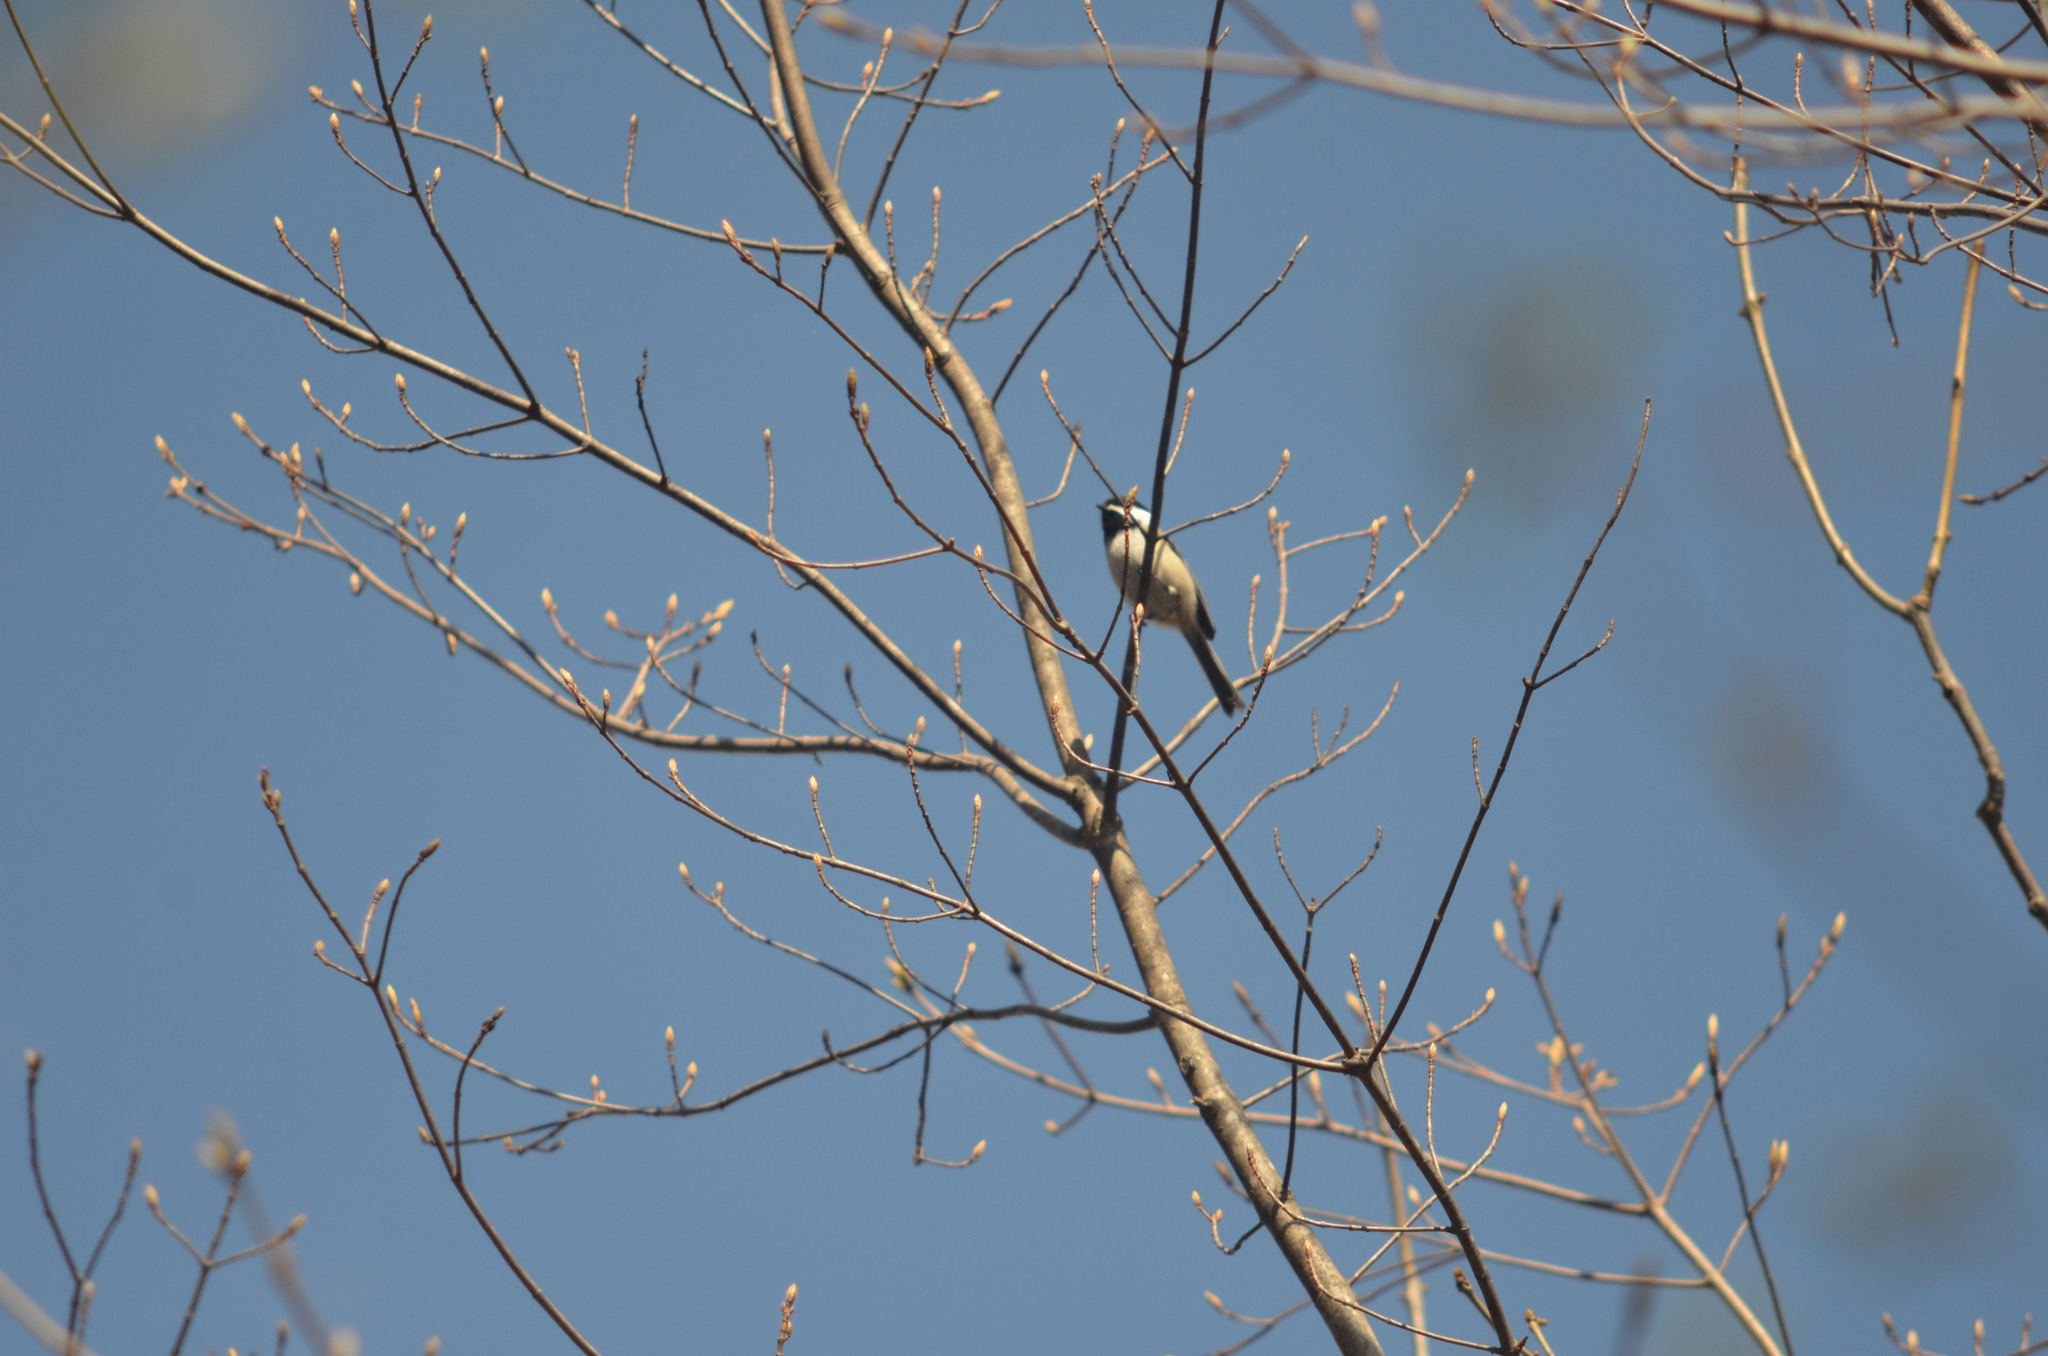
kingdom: Animalia
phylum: Chordata
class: Aves
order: Passeriformes
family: Paridae
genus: Poecile
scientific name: Poecile atricapillus
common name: Black-capped chickadee
